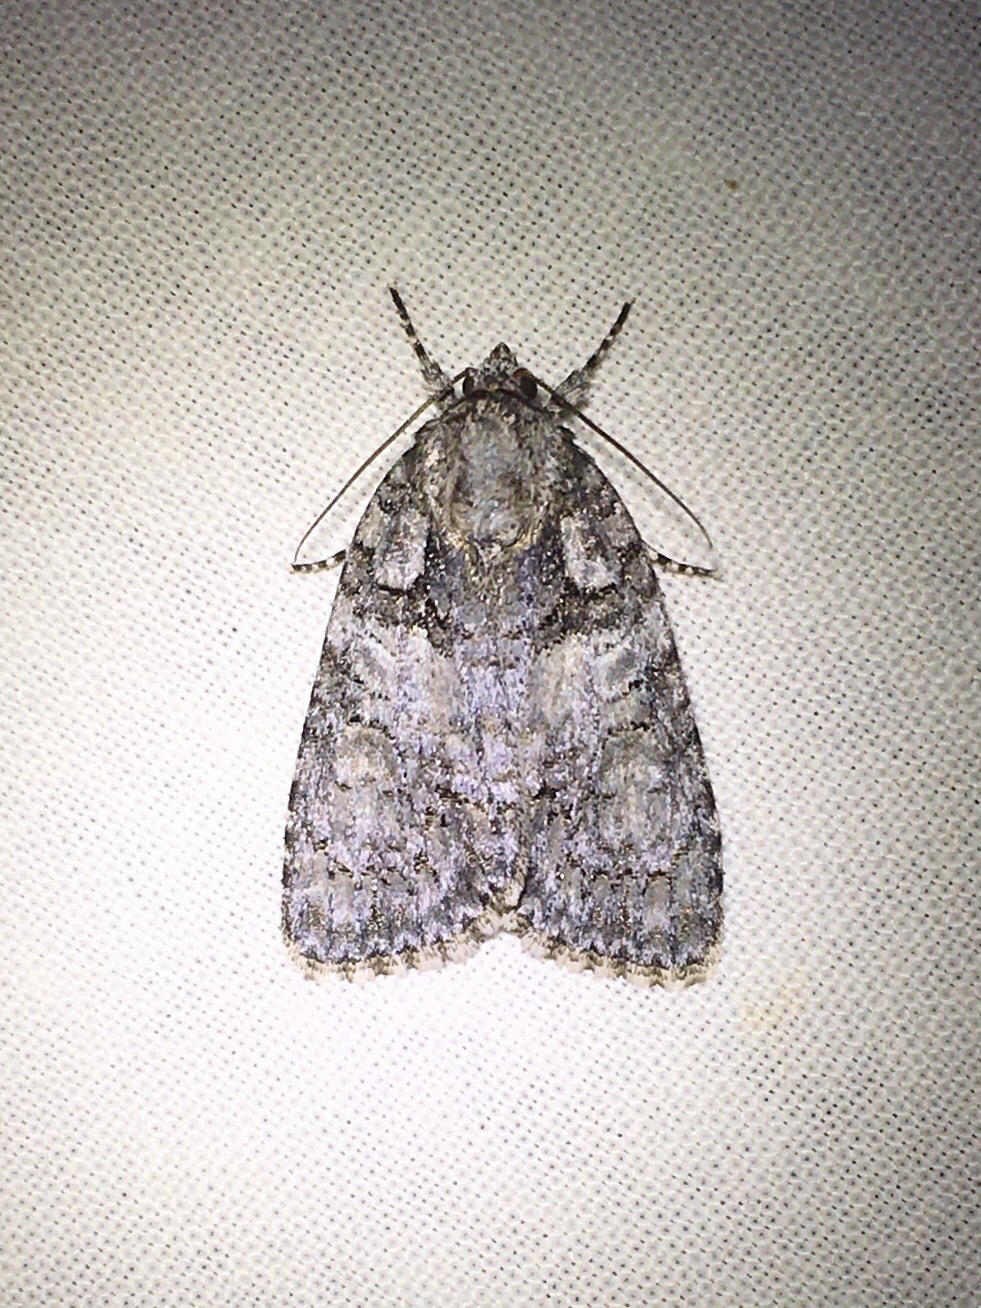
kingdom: Animalia
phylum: Arthropoda
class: Insecta
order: Lepidoptera
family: Noctuidae
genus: Acronicta
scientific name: Acronicta increta
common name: Eclipsed oak dagger
